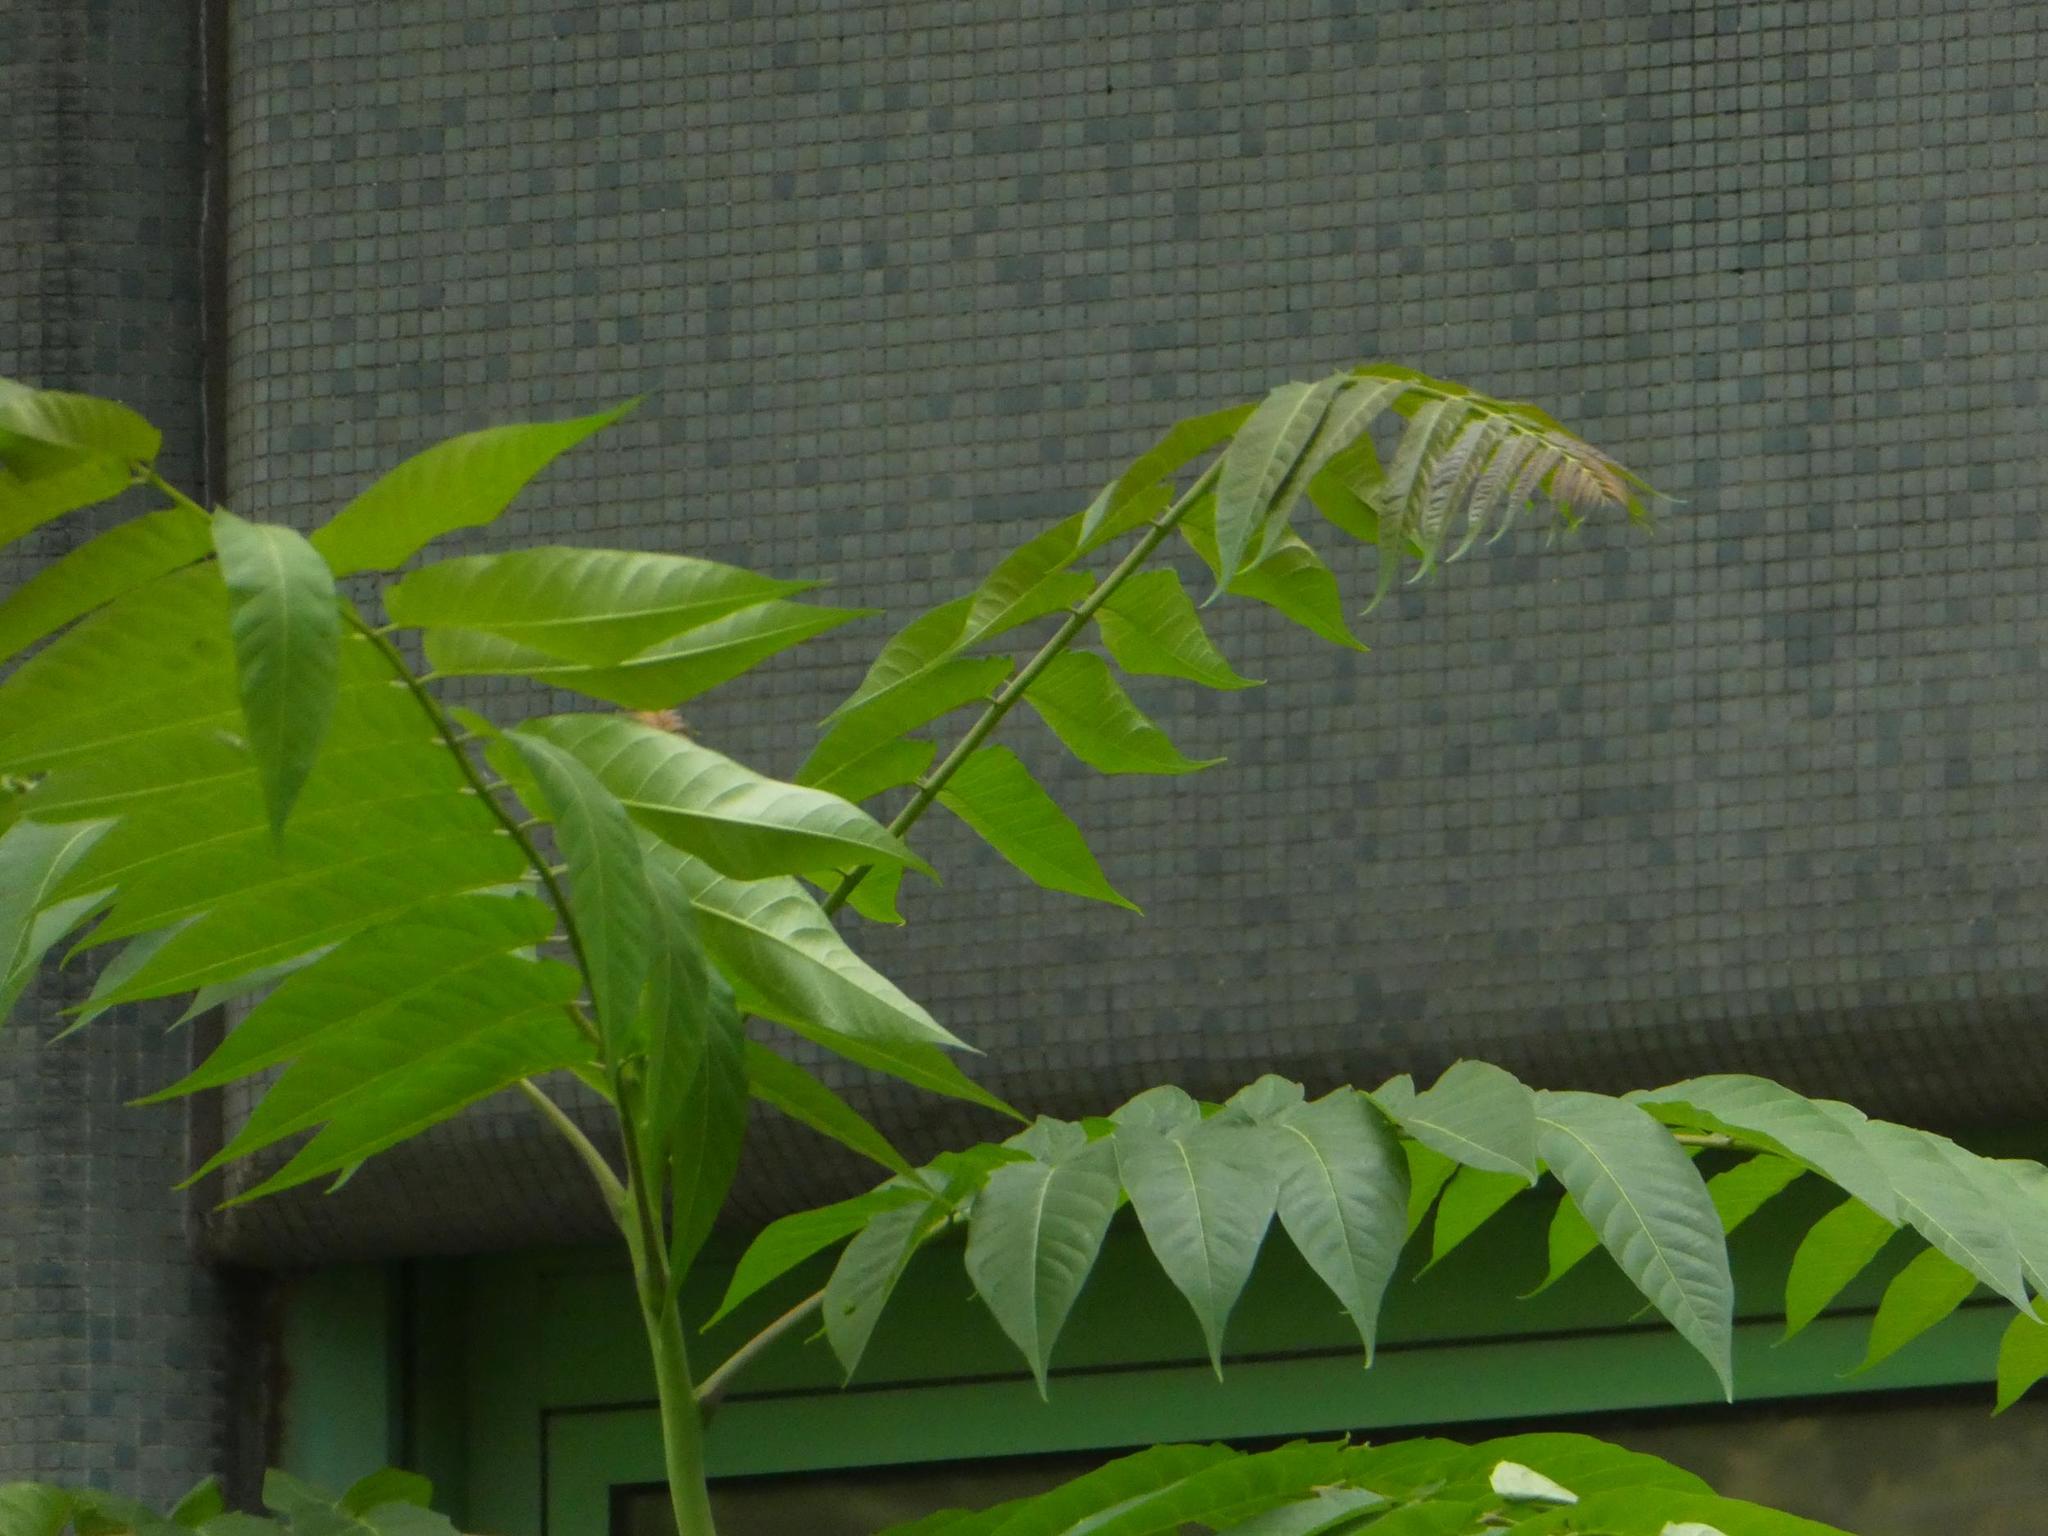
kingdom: Plantae
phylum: Tracheophyta
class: Magnoliopsida
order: Sapindales
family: Simaroubaceae
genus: Ailanthus
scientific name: Ailanthus altissima
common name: Tree-of-heaven
